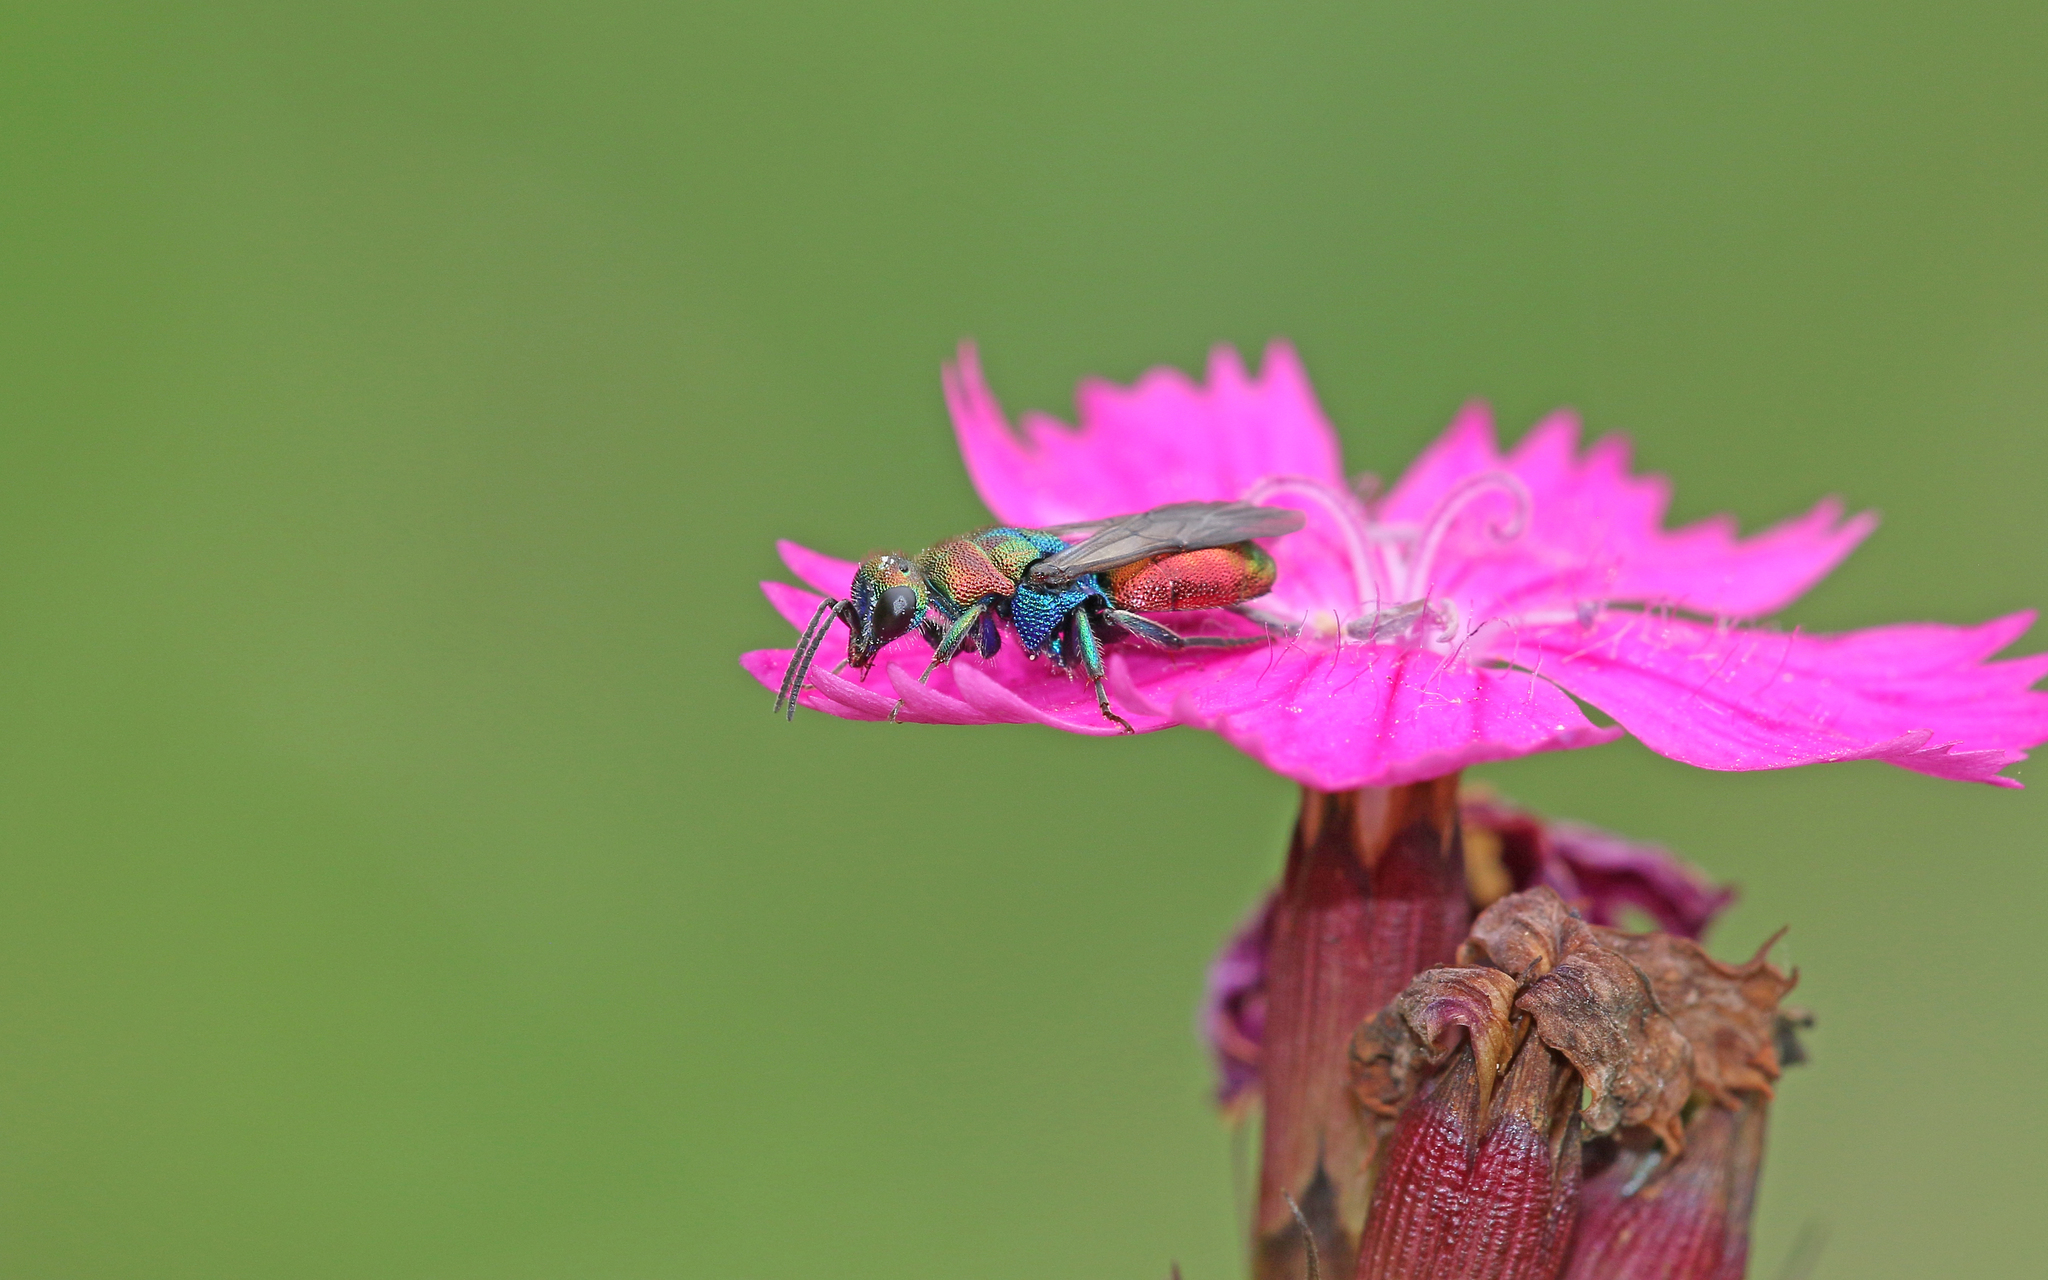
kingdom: Animalia
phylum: Arthropoda
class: Insecta
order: Hymenoptera
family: Chrysididae
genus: Hedychrum
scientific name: Hedychrum rutilans
